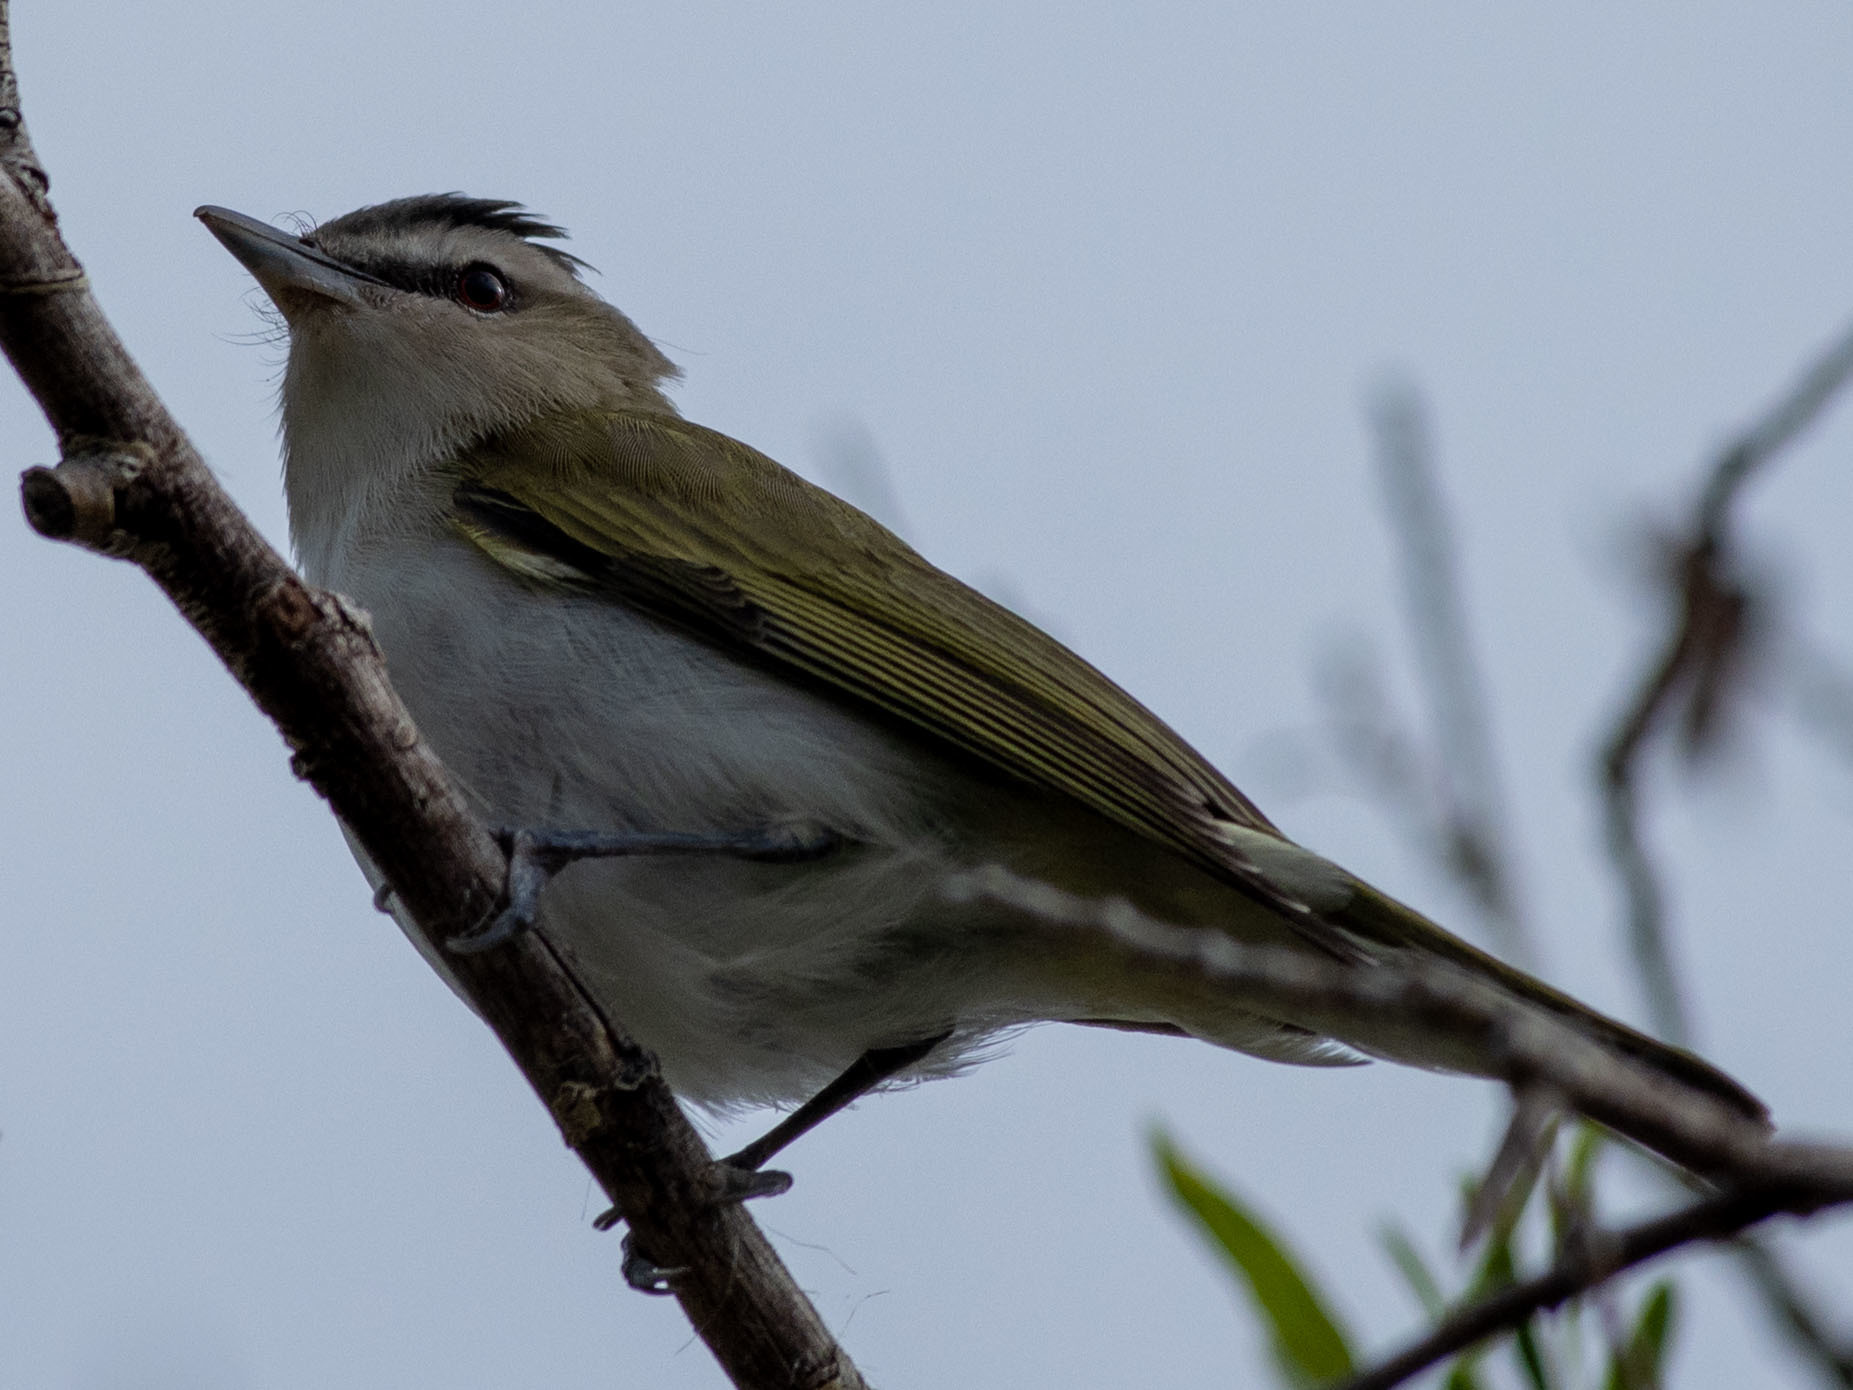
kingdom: Animalia
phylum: Chordata
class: Aves
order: Passeriformes
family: Vireonidae
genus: Vireo
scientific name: Vireo olivaceus
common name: Red-eyed vireo
